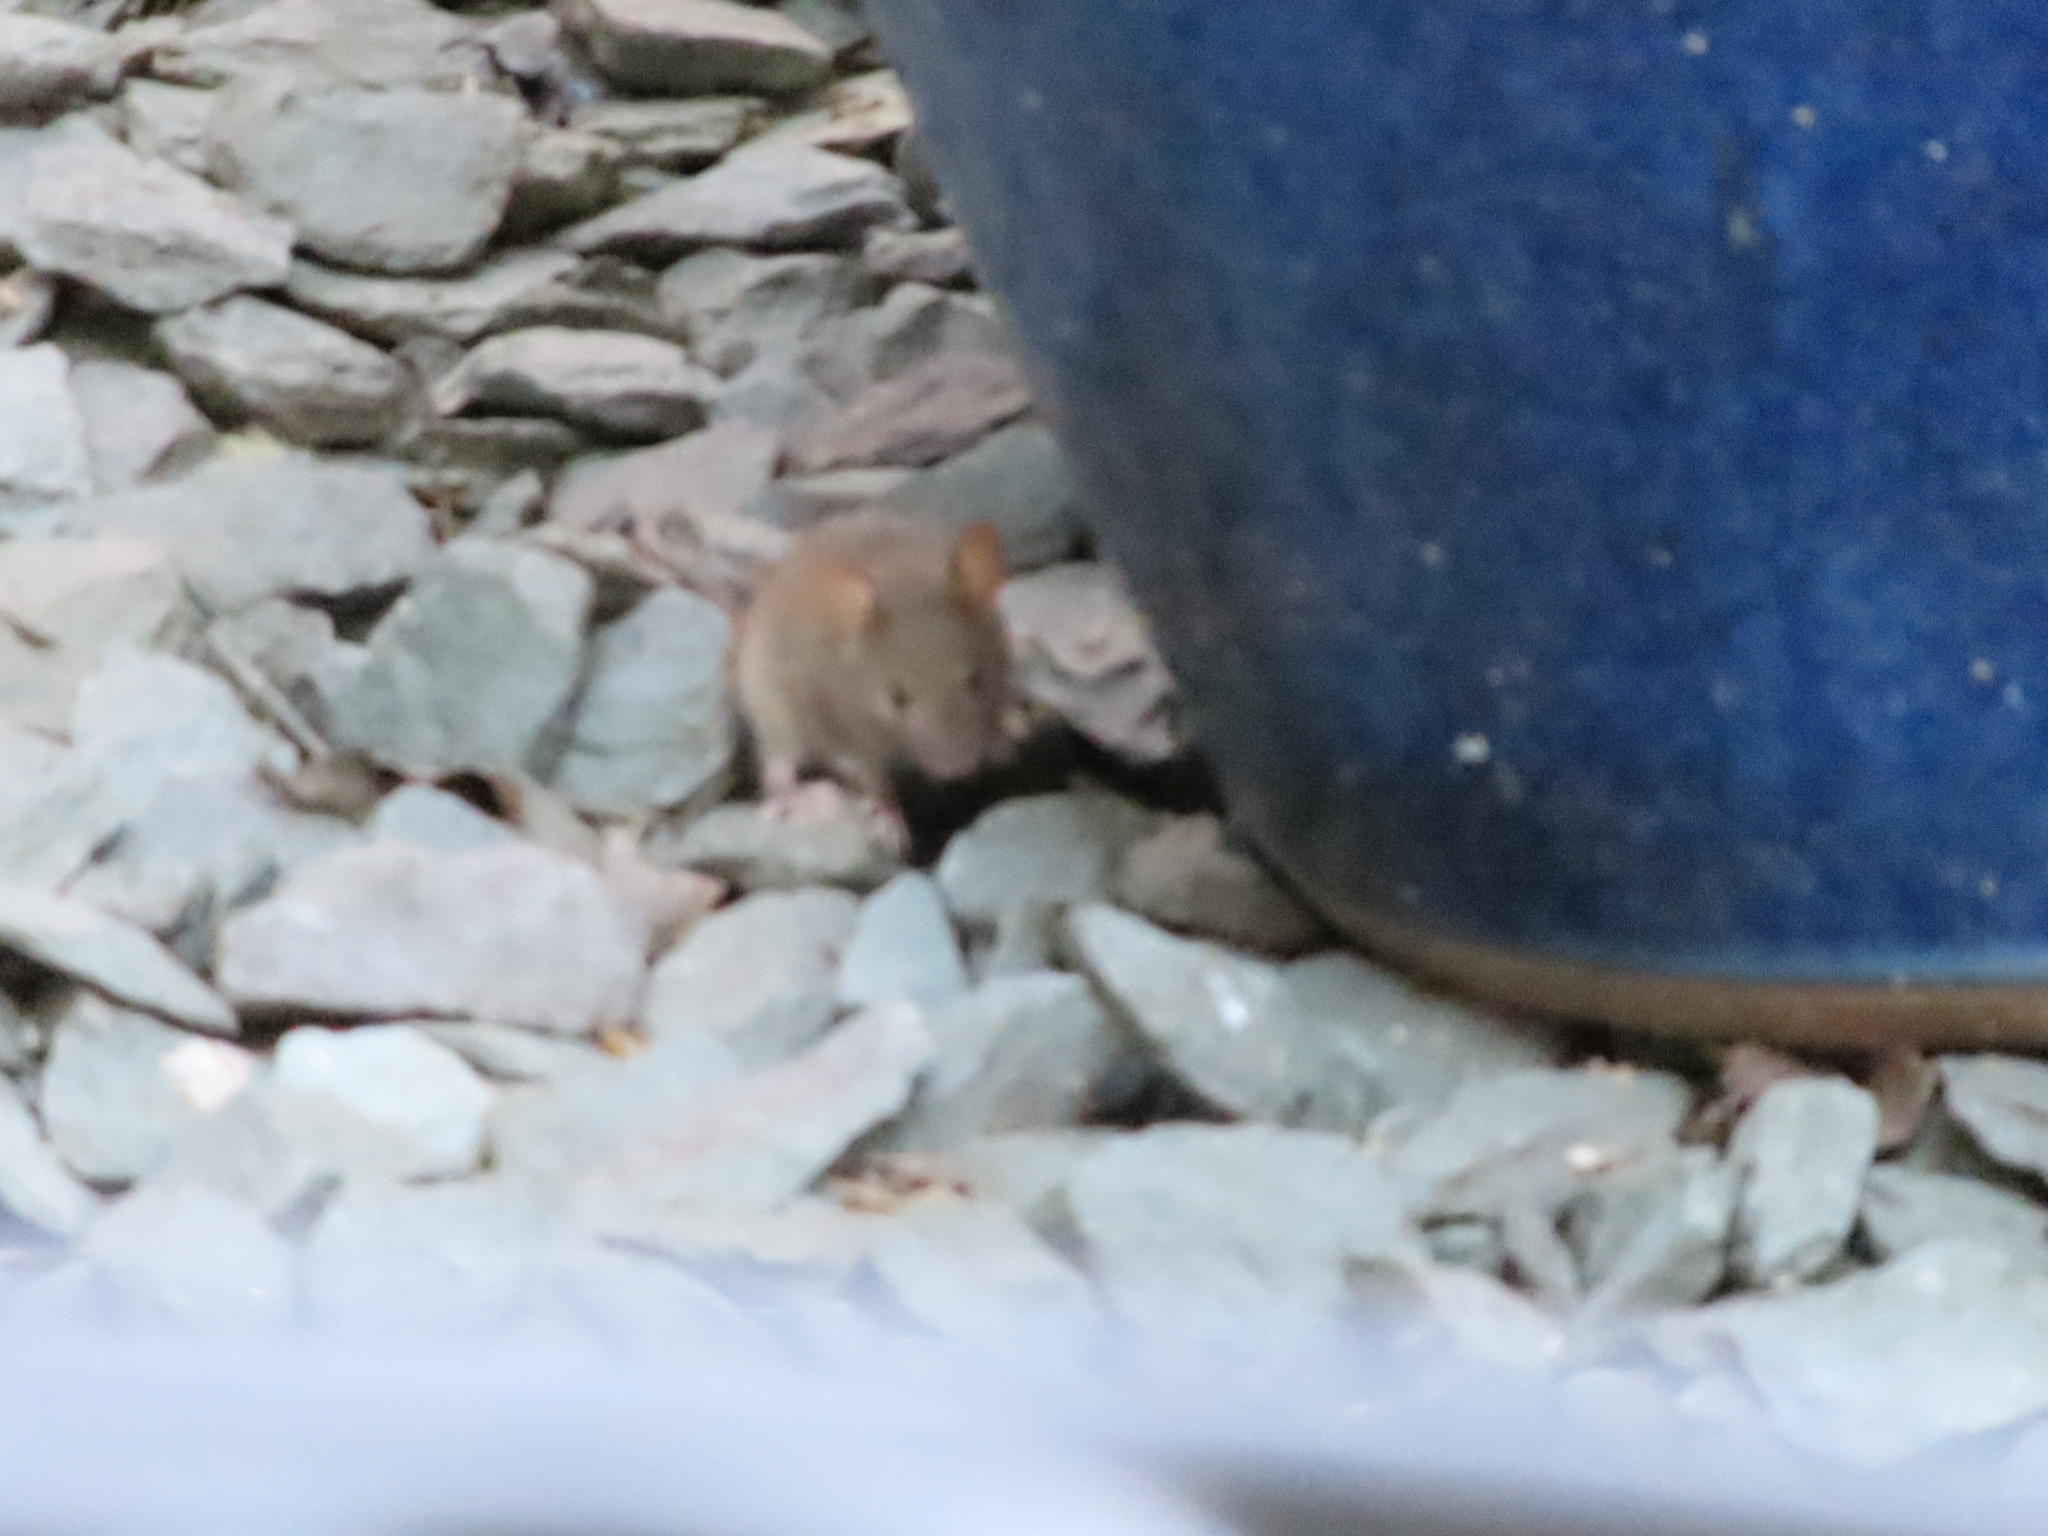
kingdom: Animalia
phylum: Chordata
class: Mammalia
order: Rodentia
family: Muridae
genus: Mus
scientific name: Mus musculus
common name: House mouse
